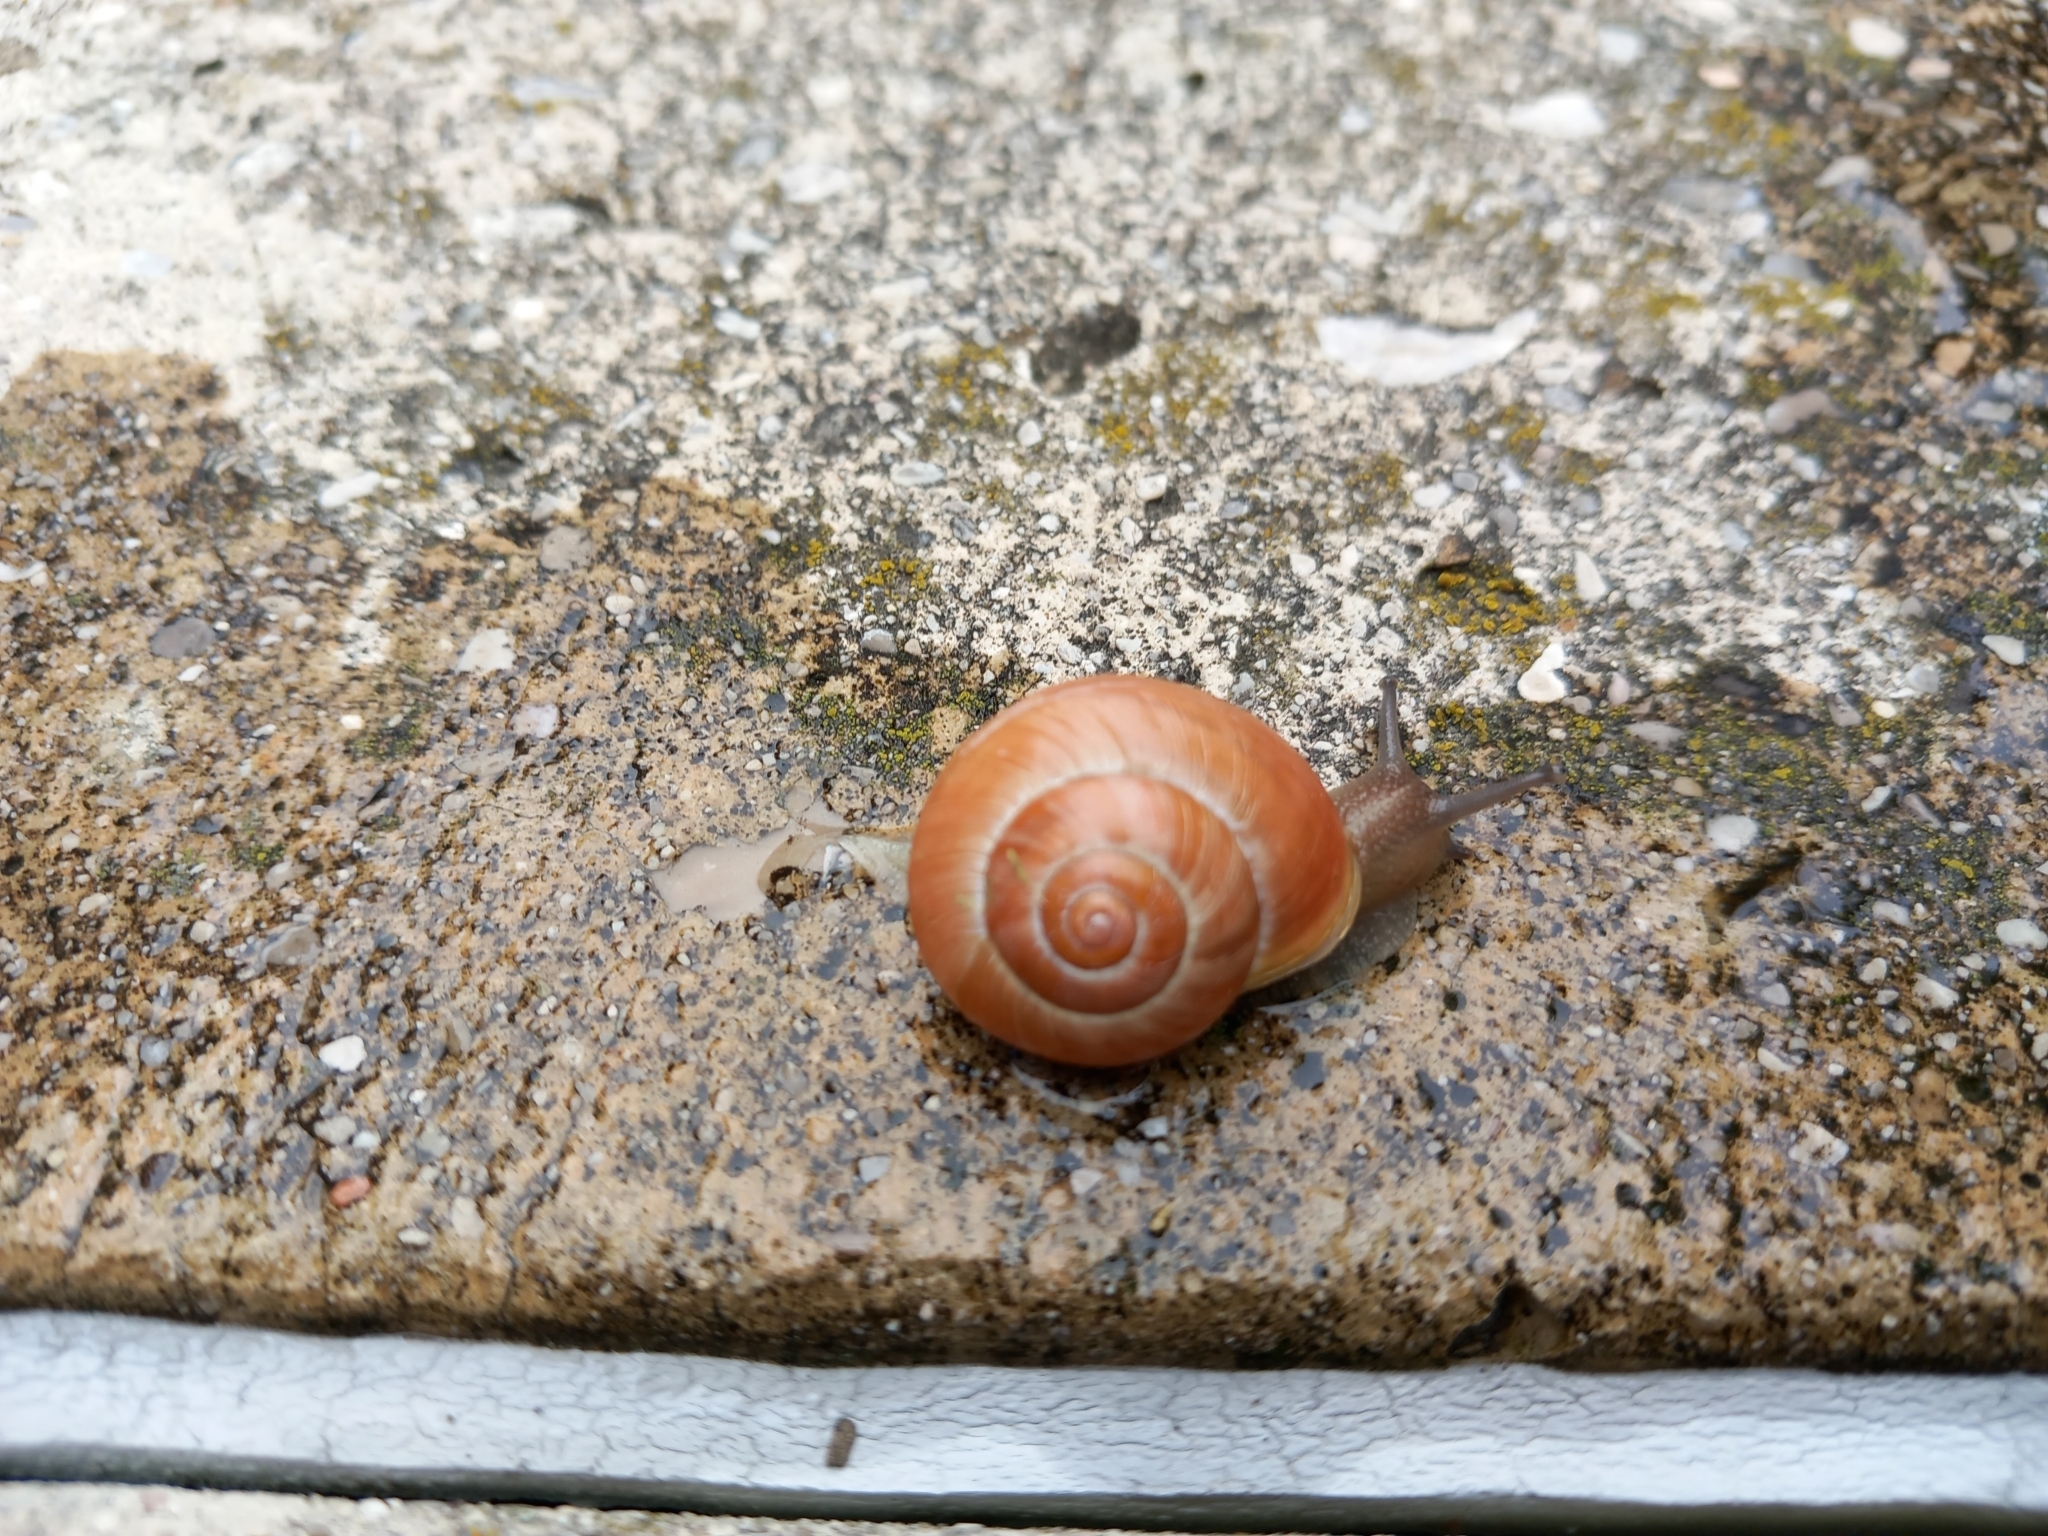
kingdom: Animalia
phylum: Mollusca
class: Gastropoda
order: Stylommatophora
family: Helicidae
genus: Cepaea
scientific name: Cepaea hortensis
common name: White-lip gardensnail
